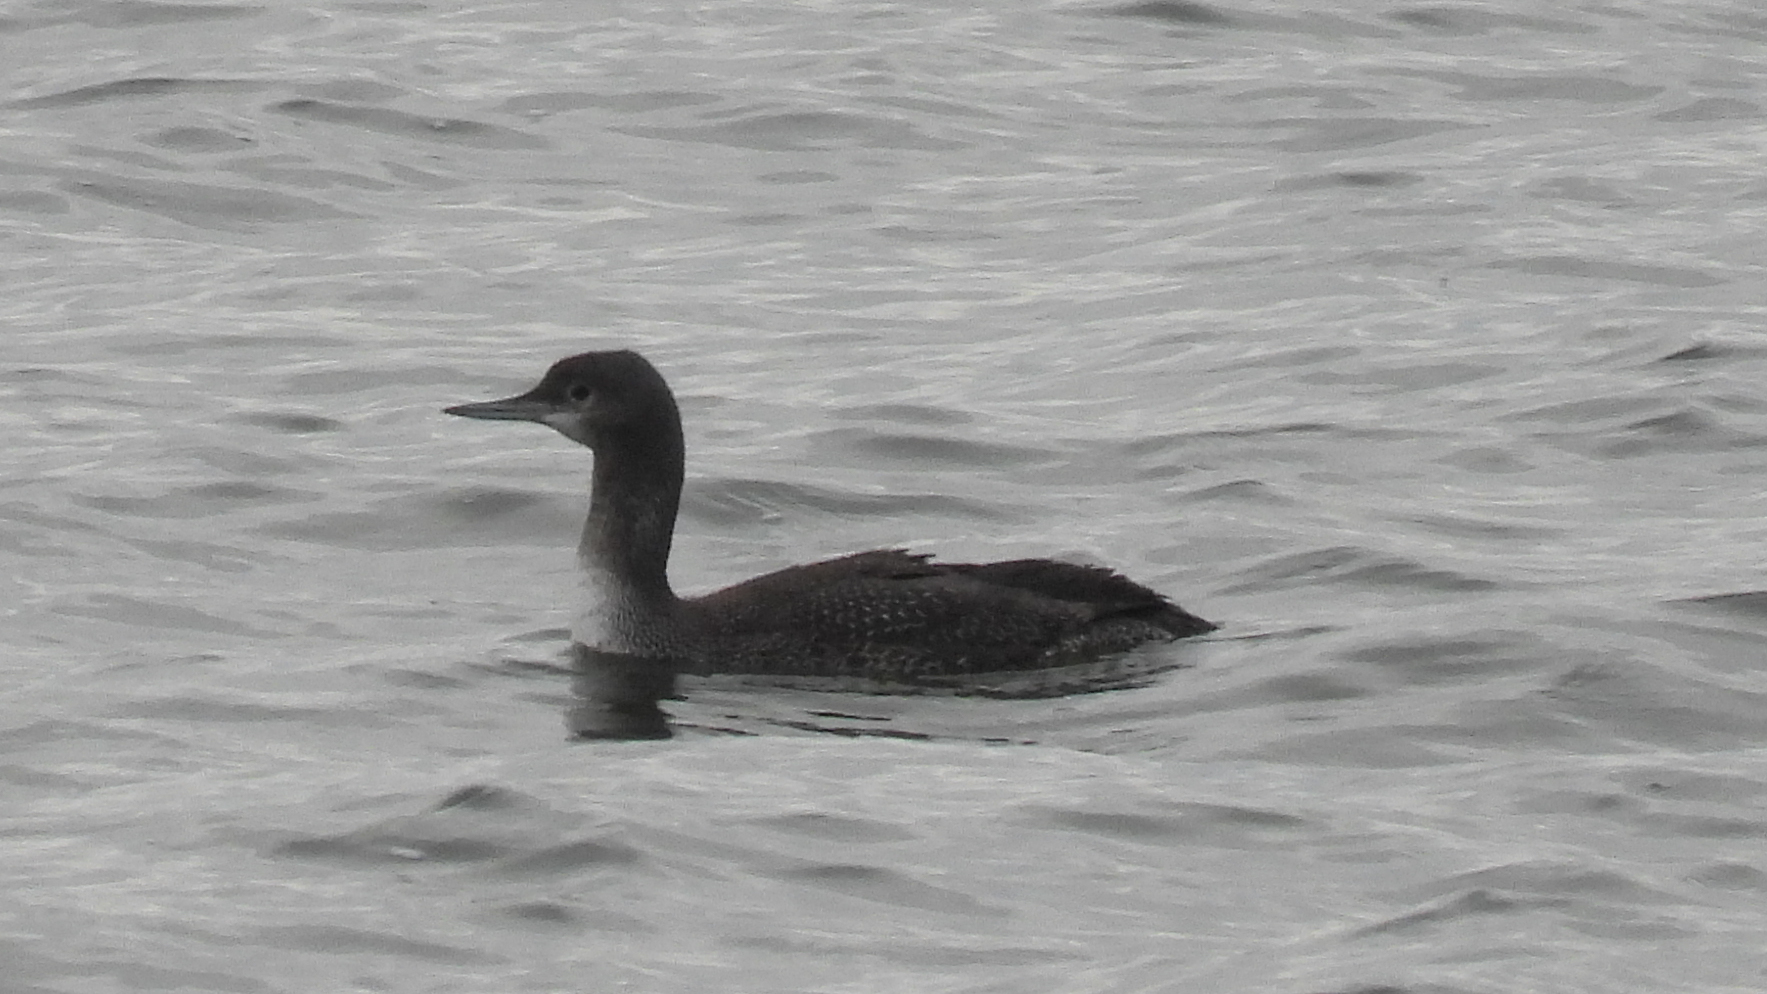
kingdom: Animalia
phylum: Chordata
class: Aves
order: Gaviiformes
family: Gaviidae
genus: Gavia
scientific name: Gavia stellata
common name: Red-throated loon
